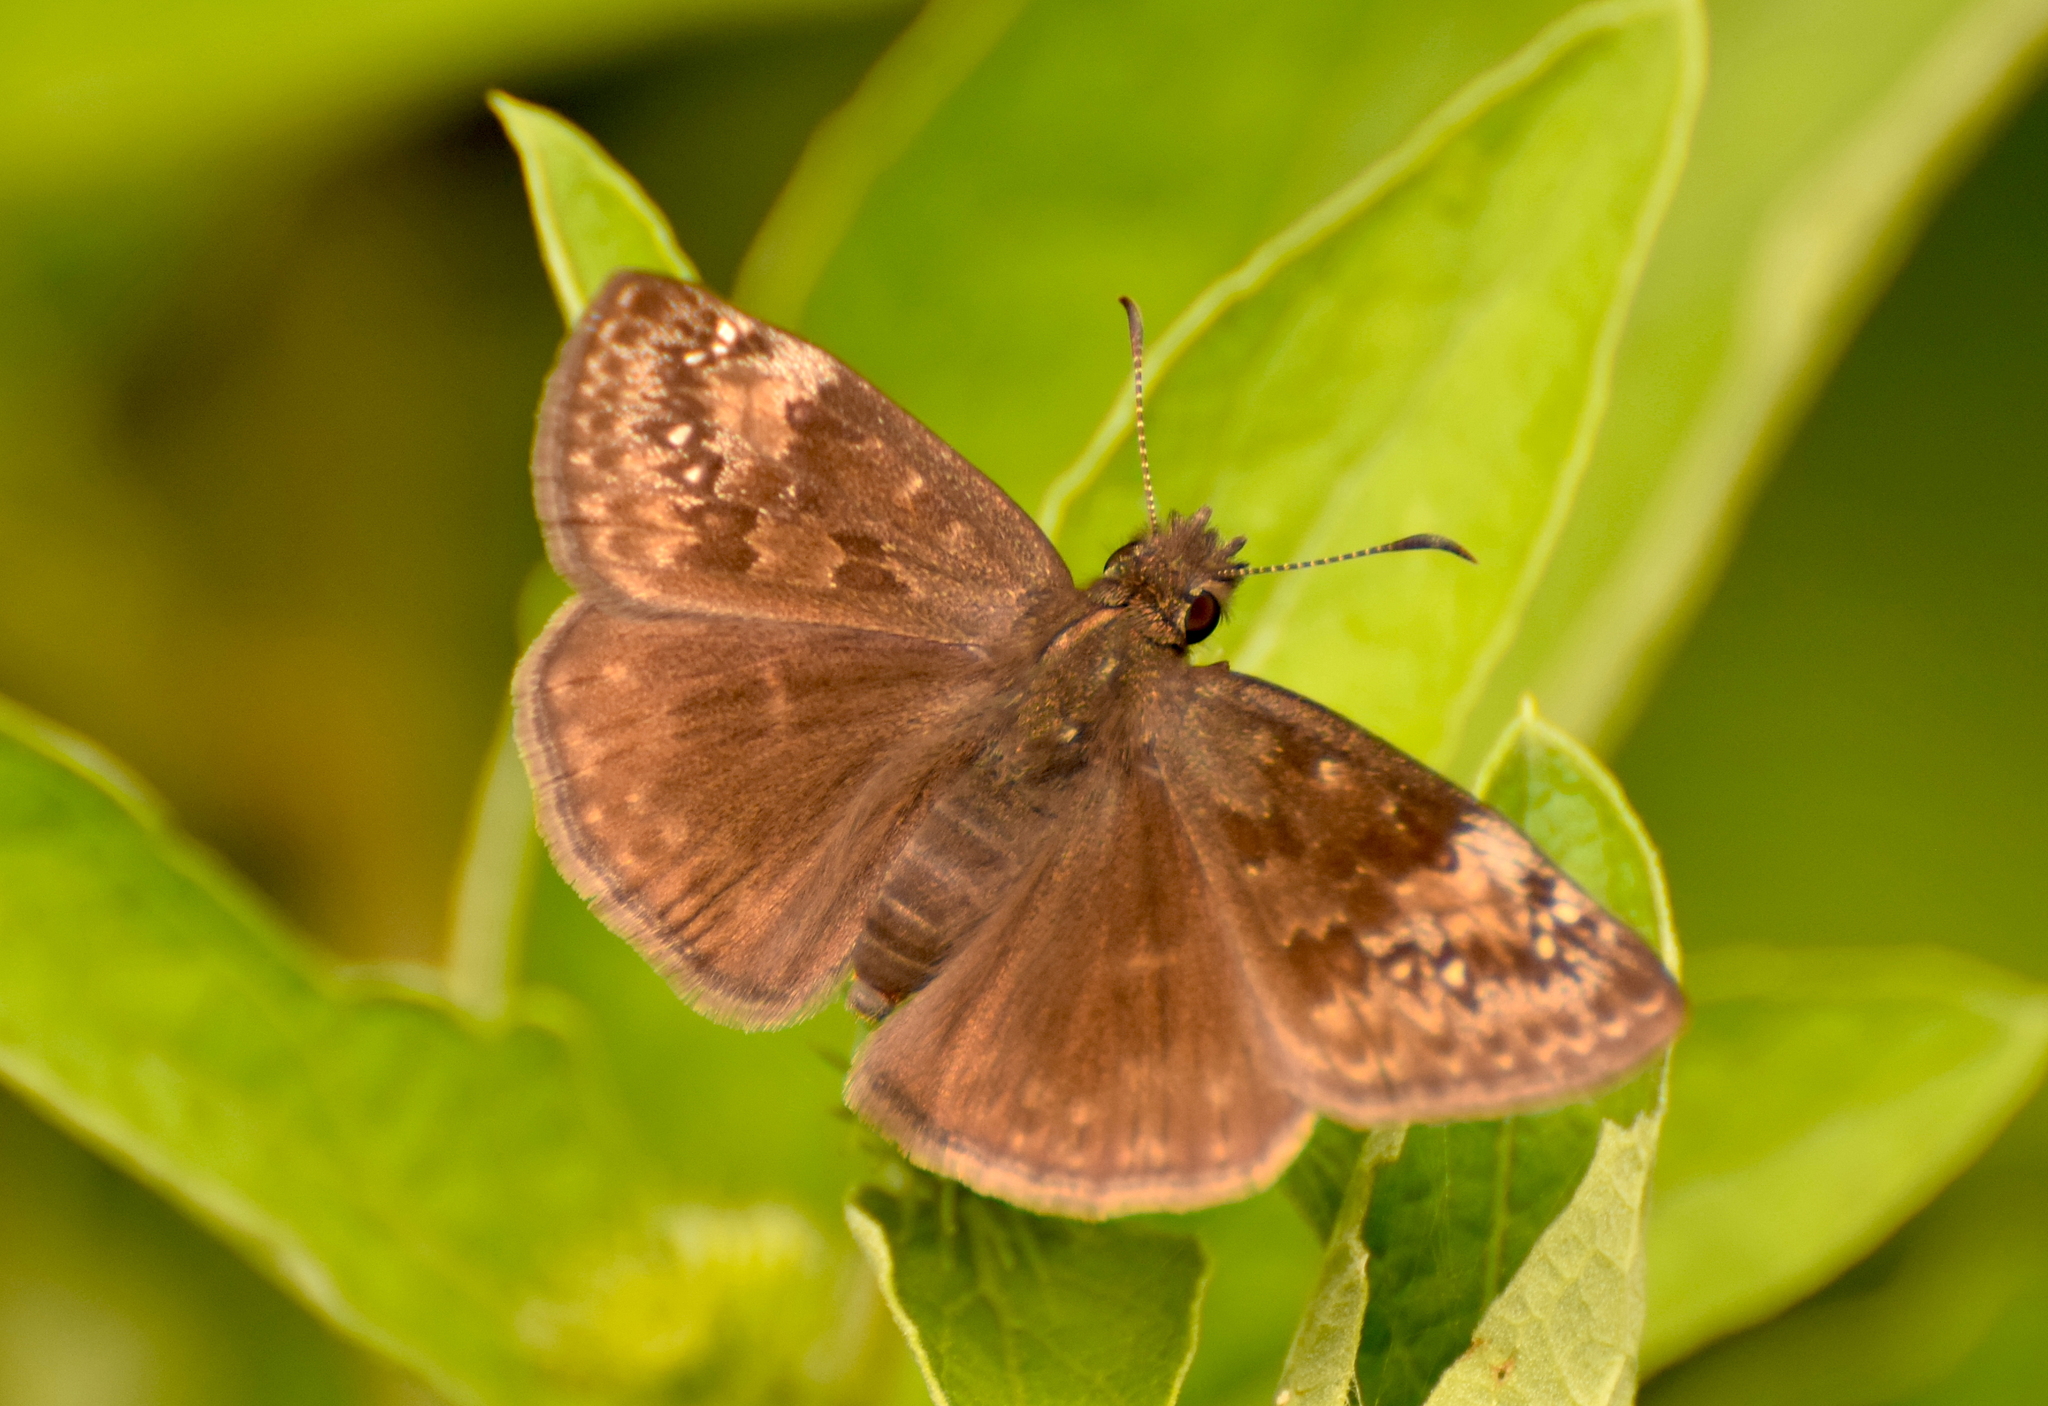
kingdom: Animalia
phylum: Arthropoda
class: Insecta
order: Lepidoptera
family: Hesperiidae
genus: Erynnis
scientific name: Erynnis baptisiae
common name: Wild indigo duskywing
